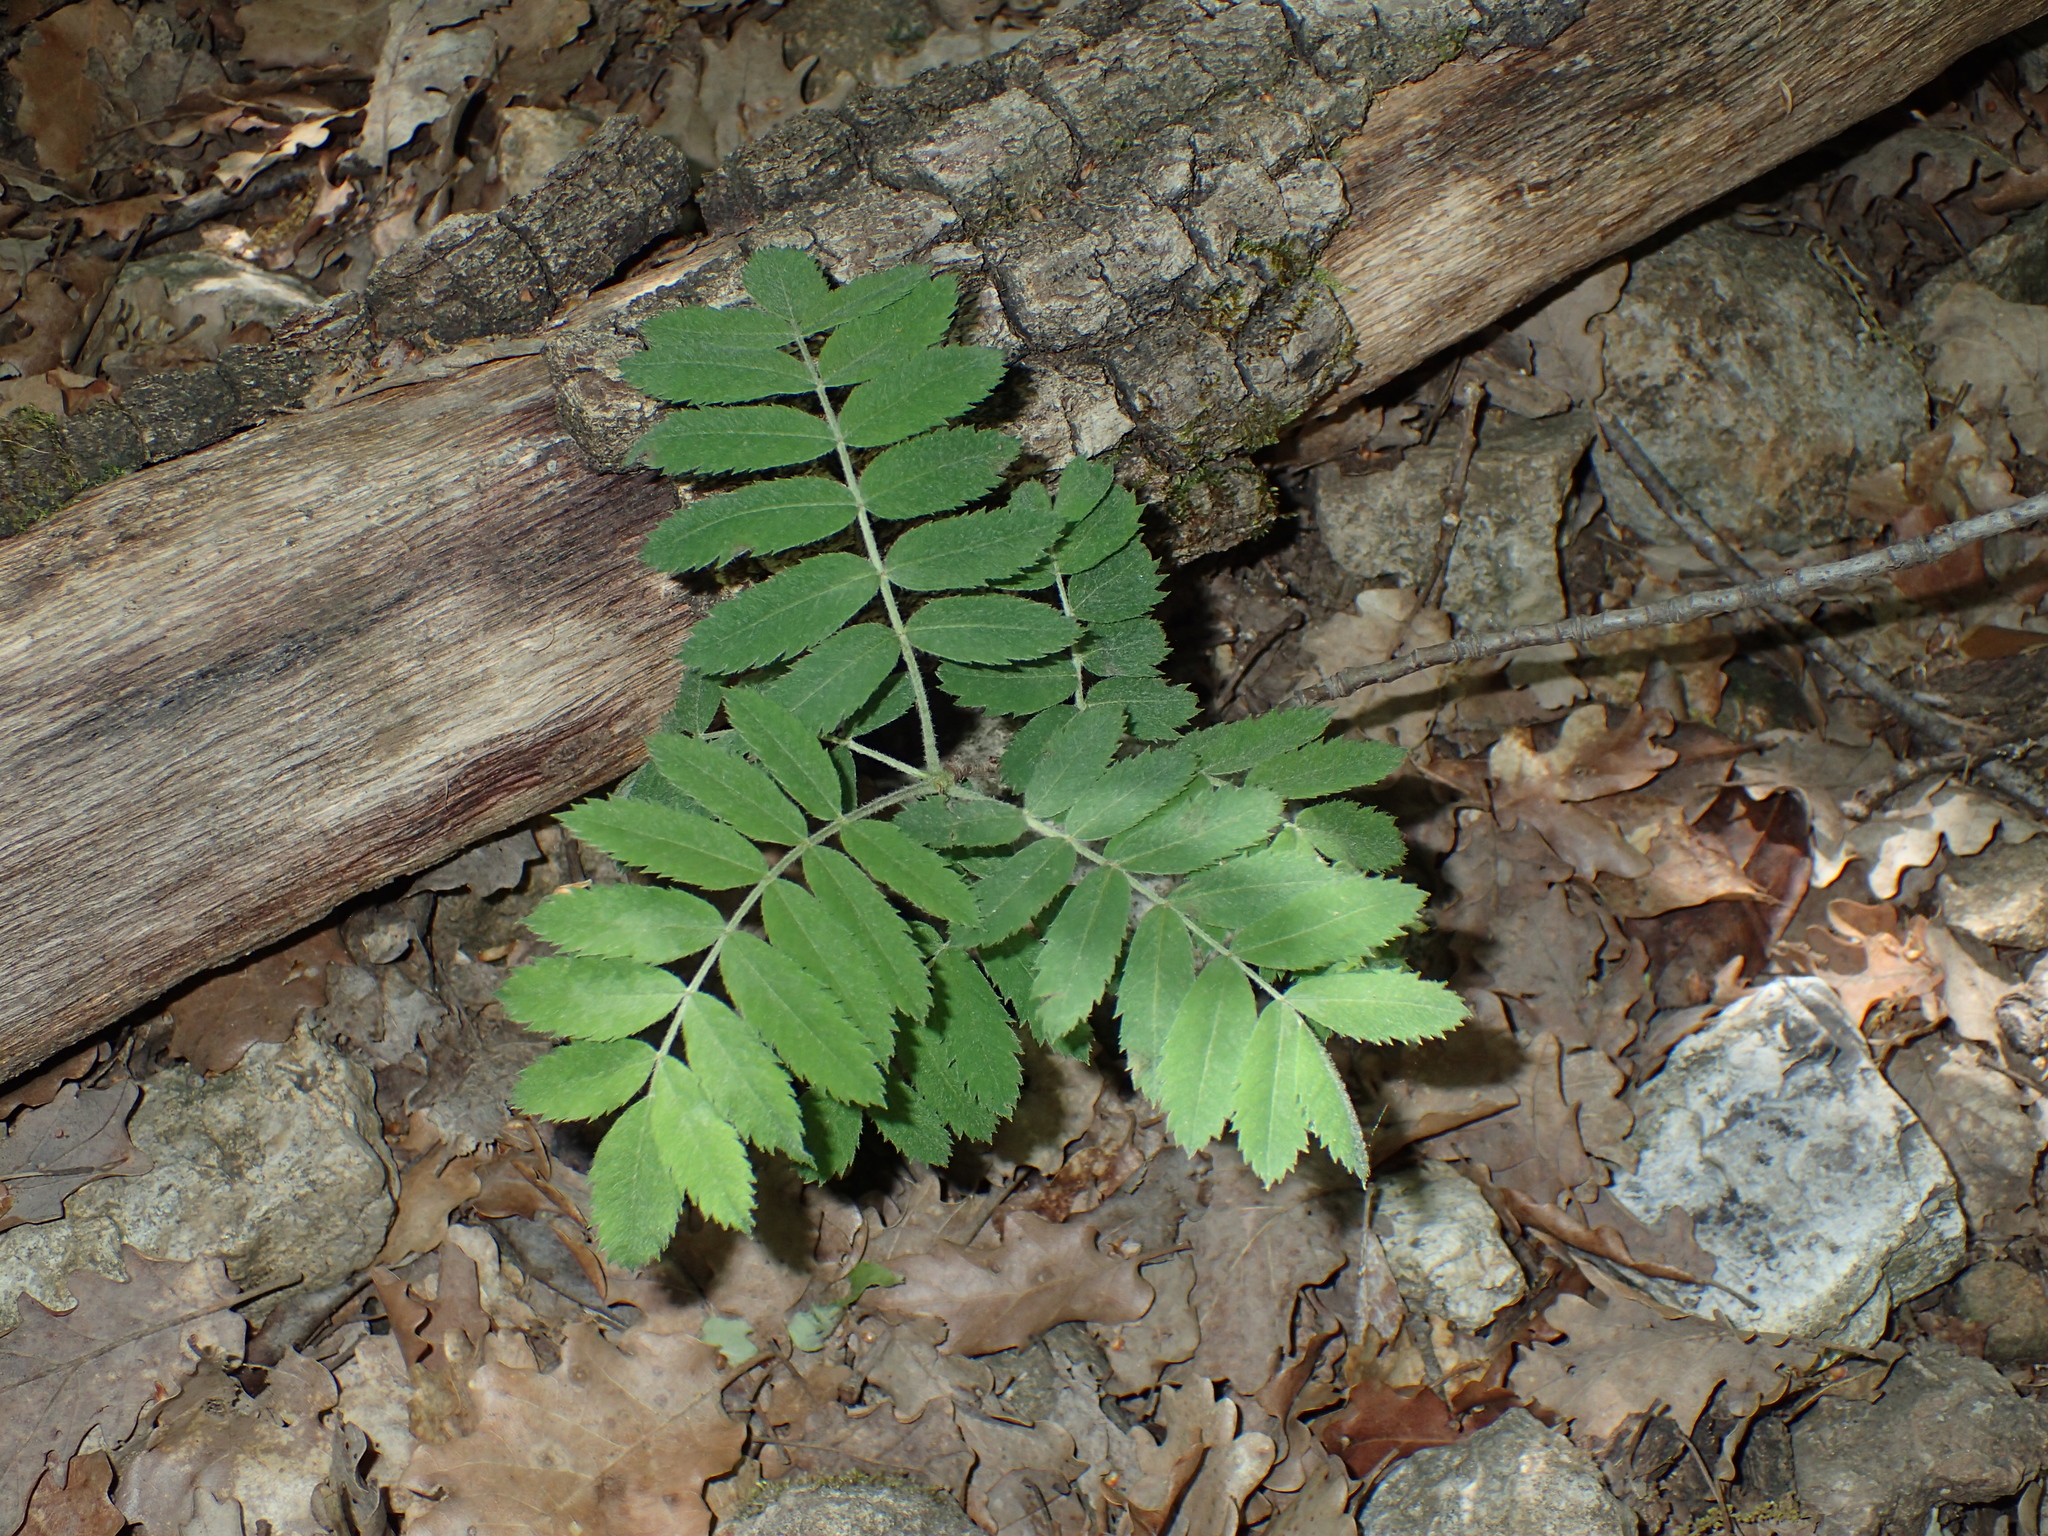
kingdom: Plantae
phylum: Tracheophyta
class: Magnoliopsida
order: Rosales
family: Rosaceae
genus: Cormus
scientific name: Cormus domestica
